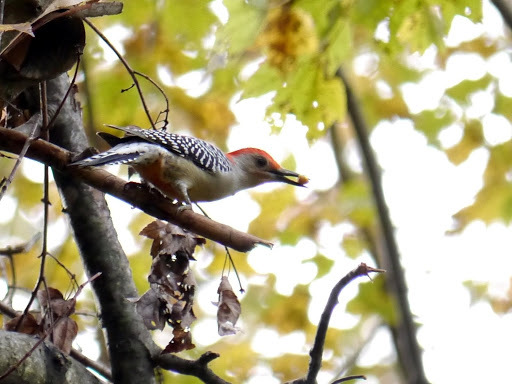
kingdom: Animalia
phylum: Chordata
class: Aves
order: Piciformes
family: Picidae
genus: Melanerpes
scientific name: Melanerpes carolinus
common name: Red-bellied woodpecker
